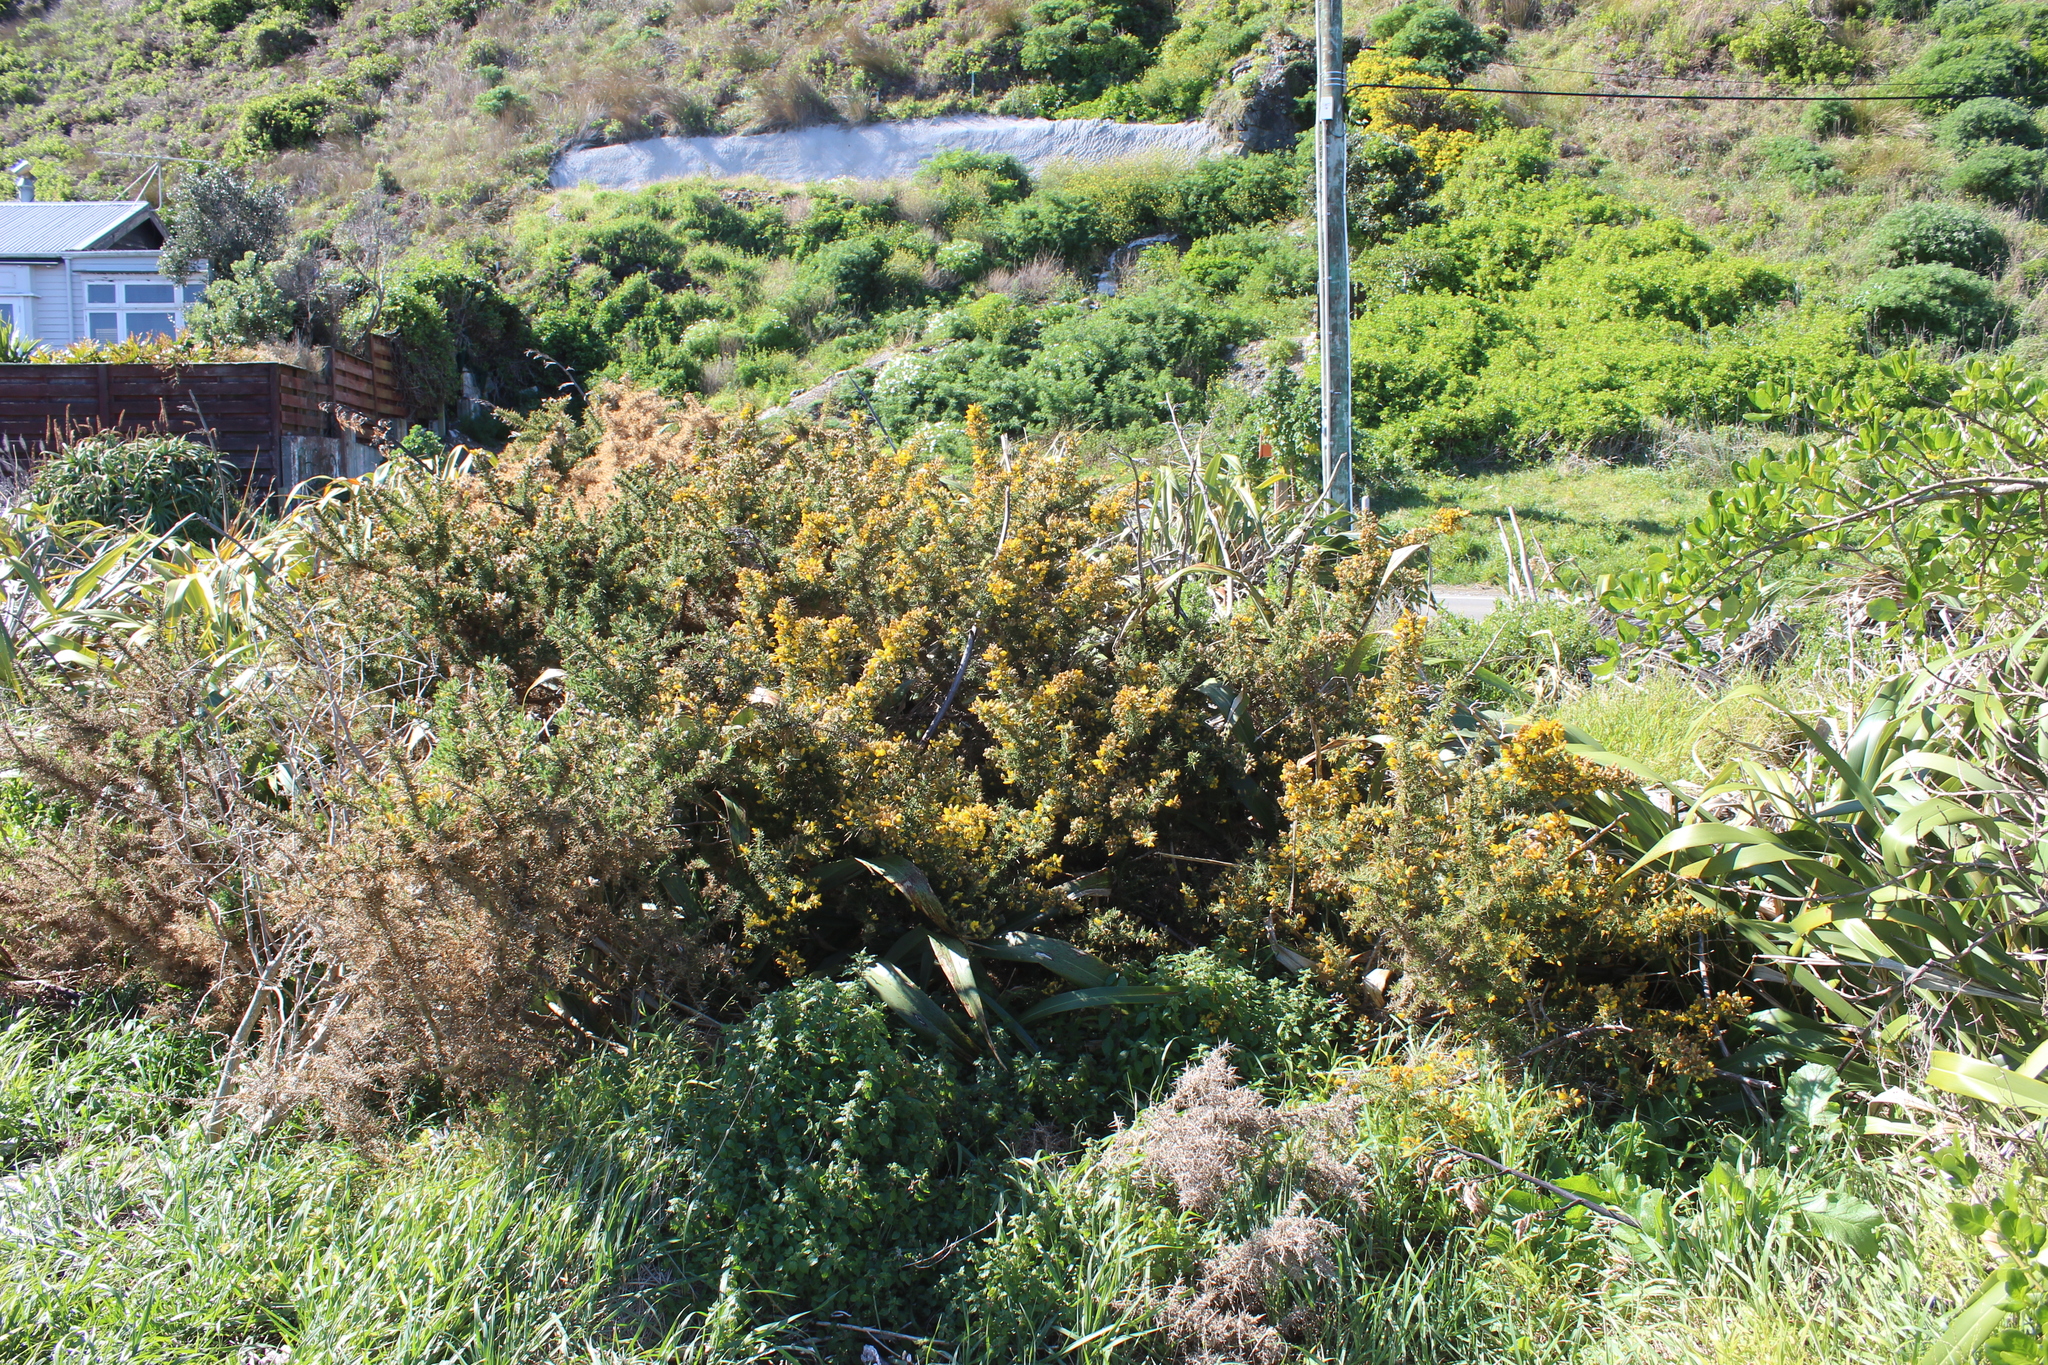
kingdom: Plantae
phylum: Tracheophyta
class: Magnoliopsida
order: Fabales
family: Fabaceae
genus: Ulex
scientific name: Ulex europaeus
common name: Common gorse
